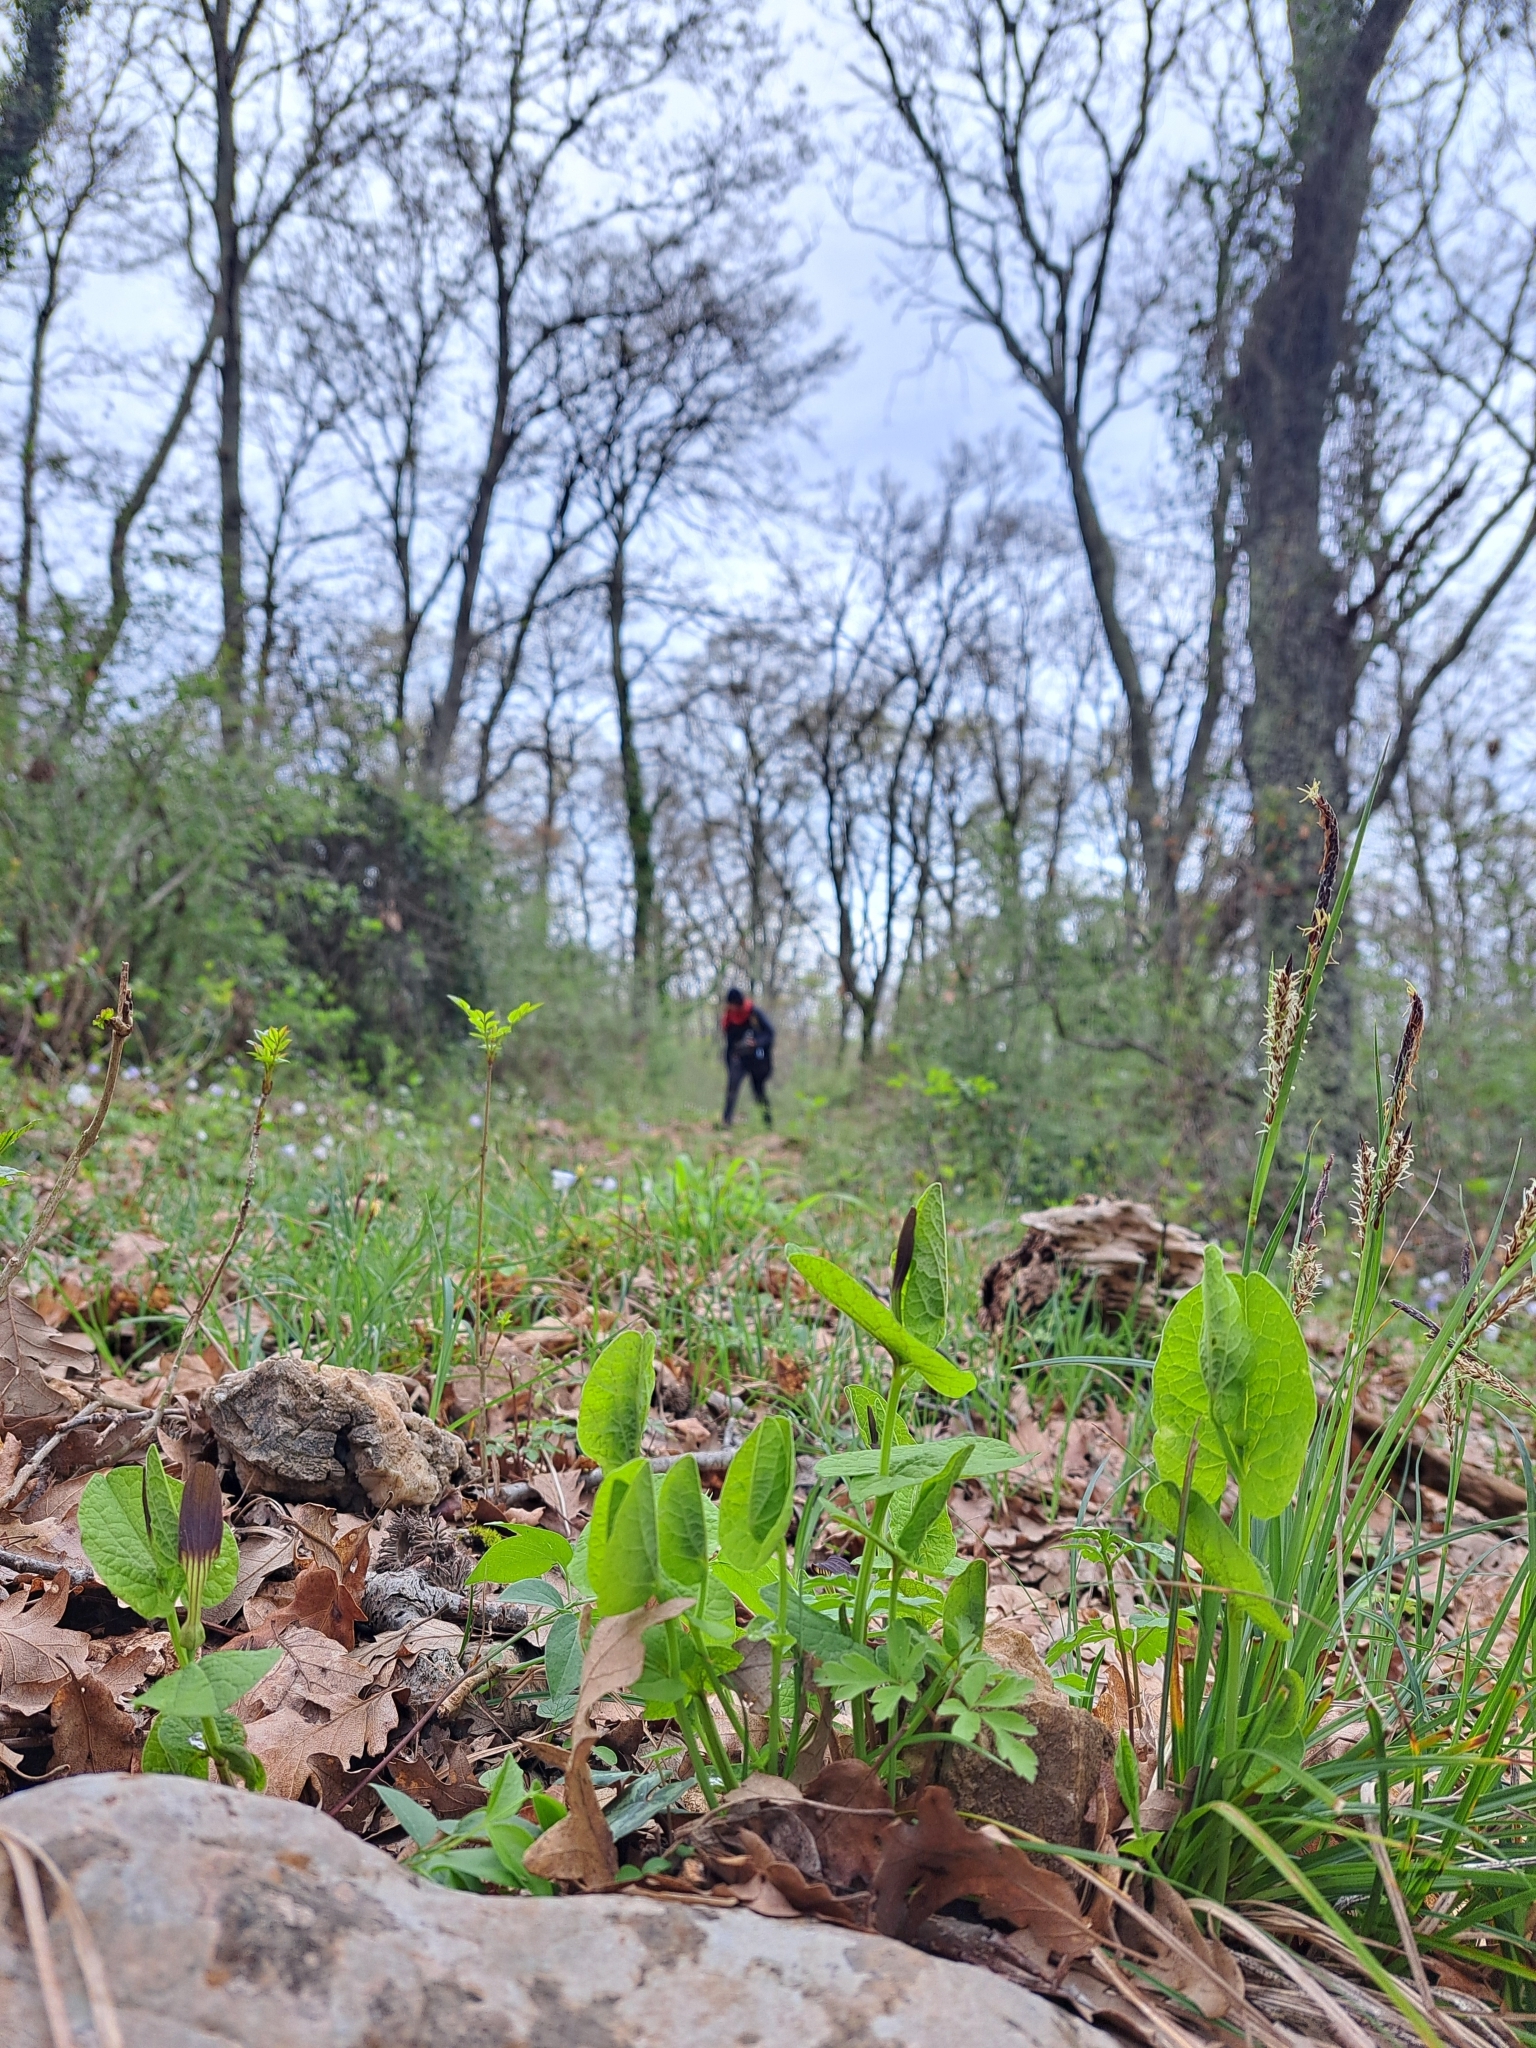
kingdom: Plantae
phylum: Tracheophyta
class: Magnoliopsida
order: Piperales
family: Aristolochiaceae
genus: Aristolochia
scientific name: Aristolochia rotunda
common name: Smearwort
